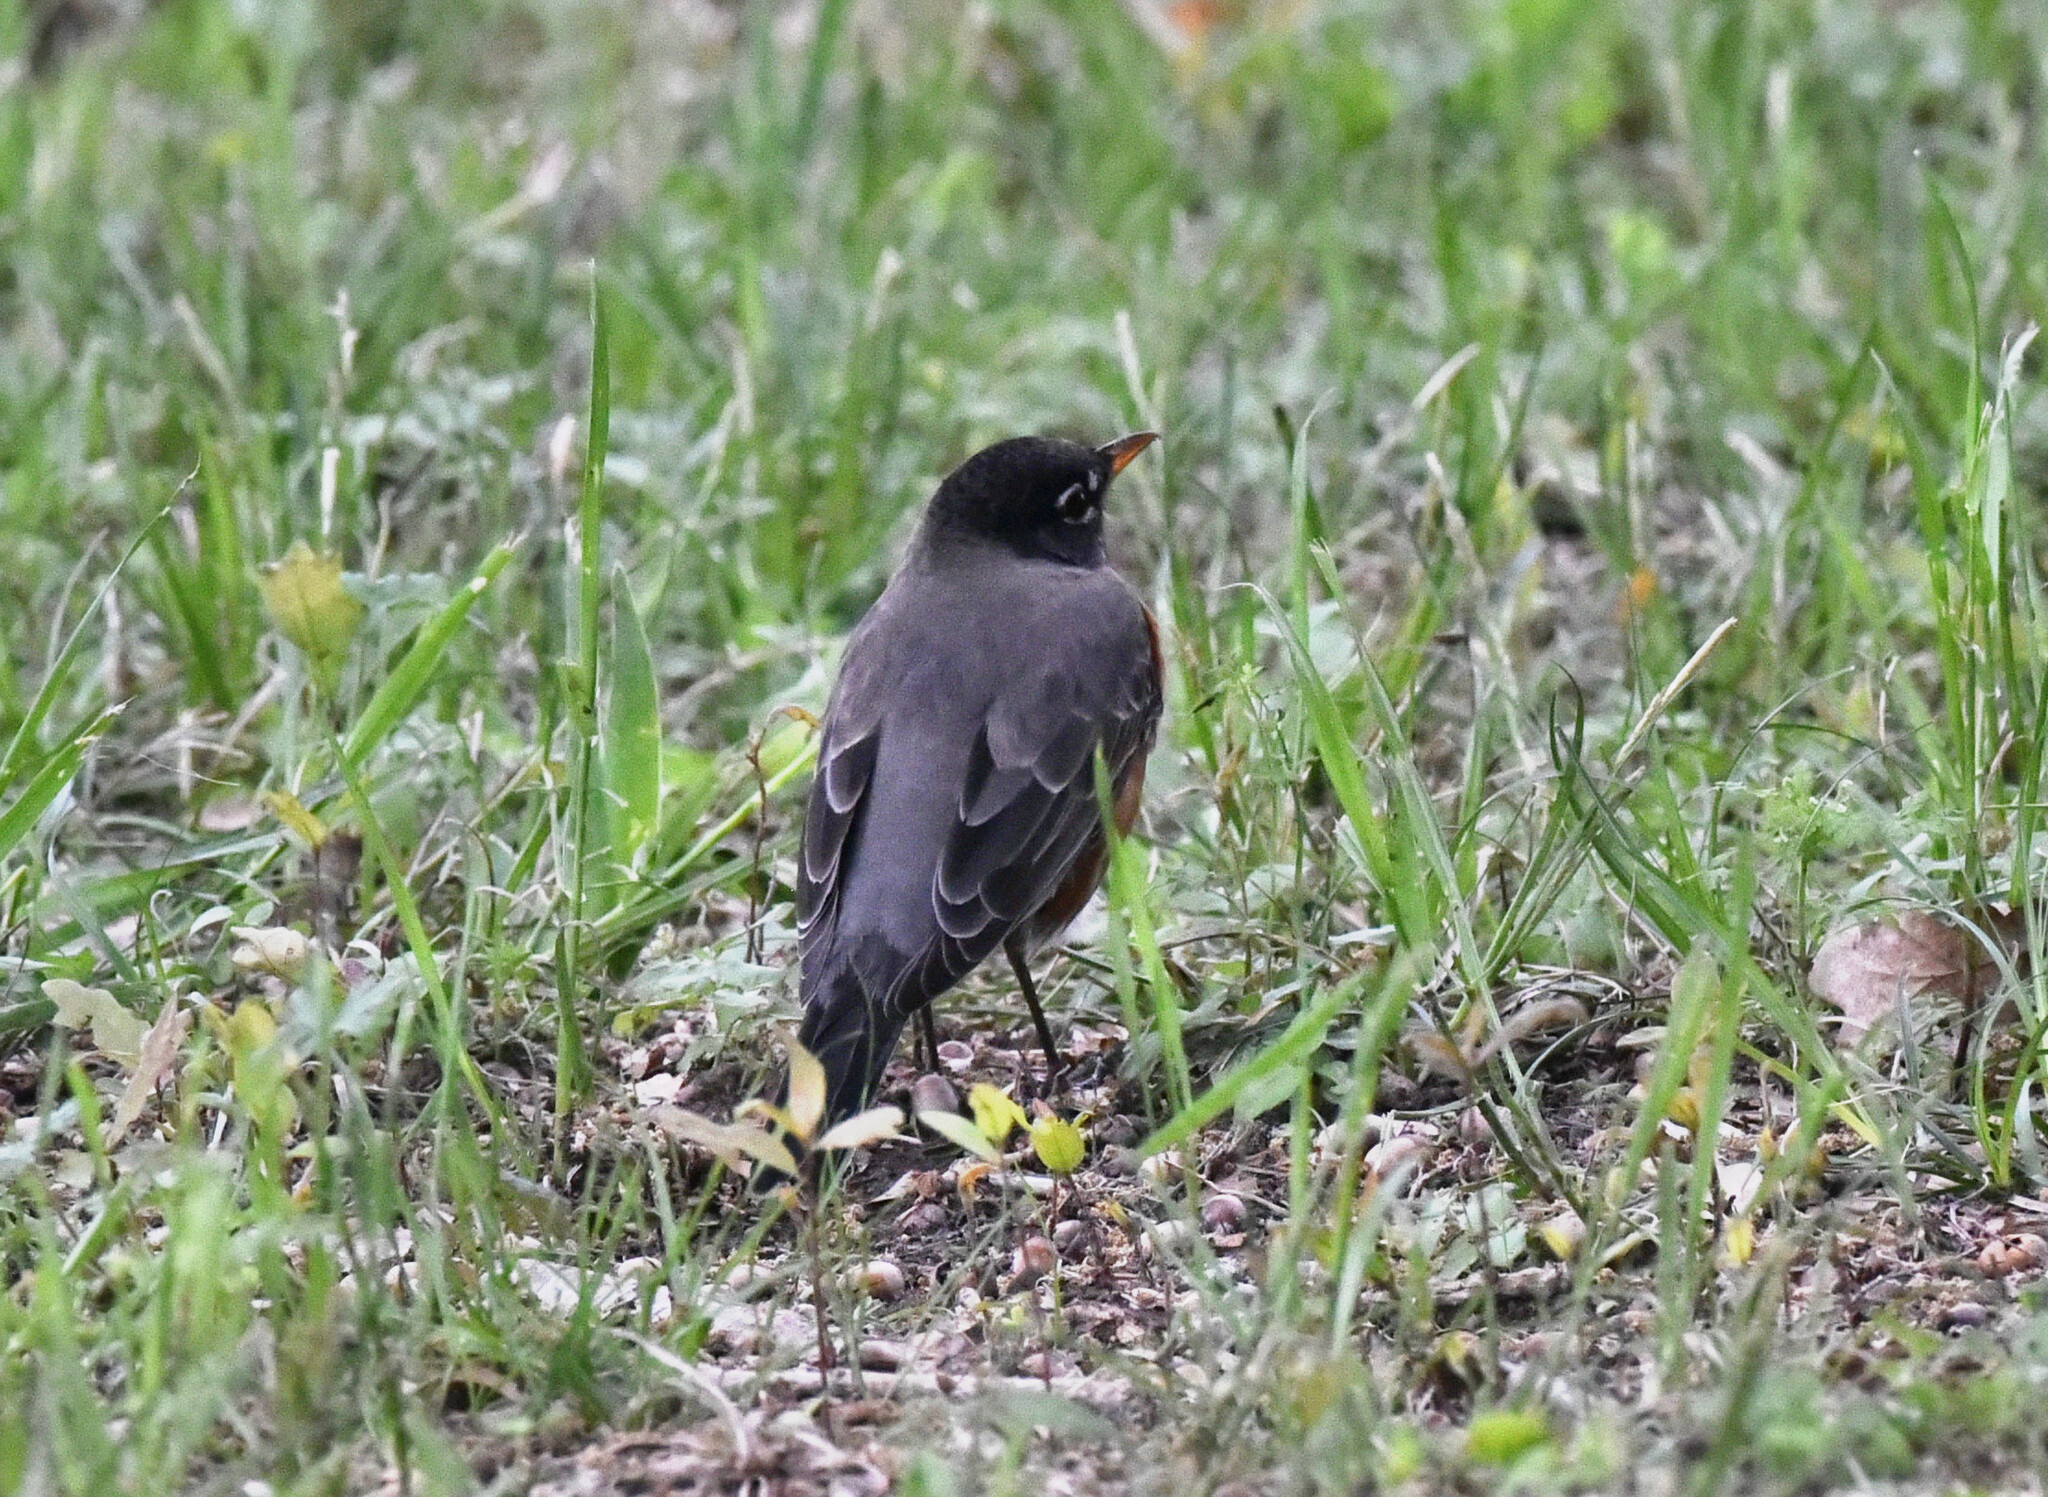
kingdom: Animalia
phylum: Chordata
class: Aves
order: Passeriformes
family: Turdidae
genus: Turdus
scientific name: Turdus migratorius
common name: American robin
